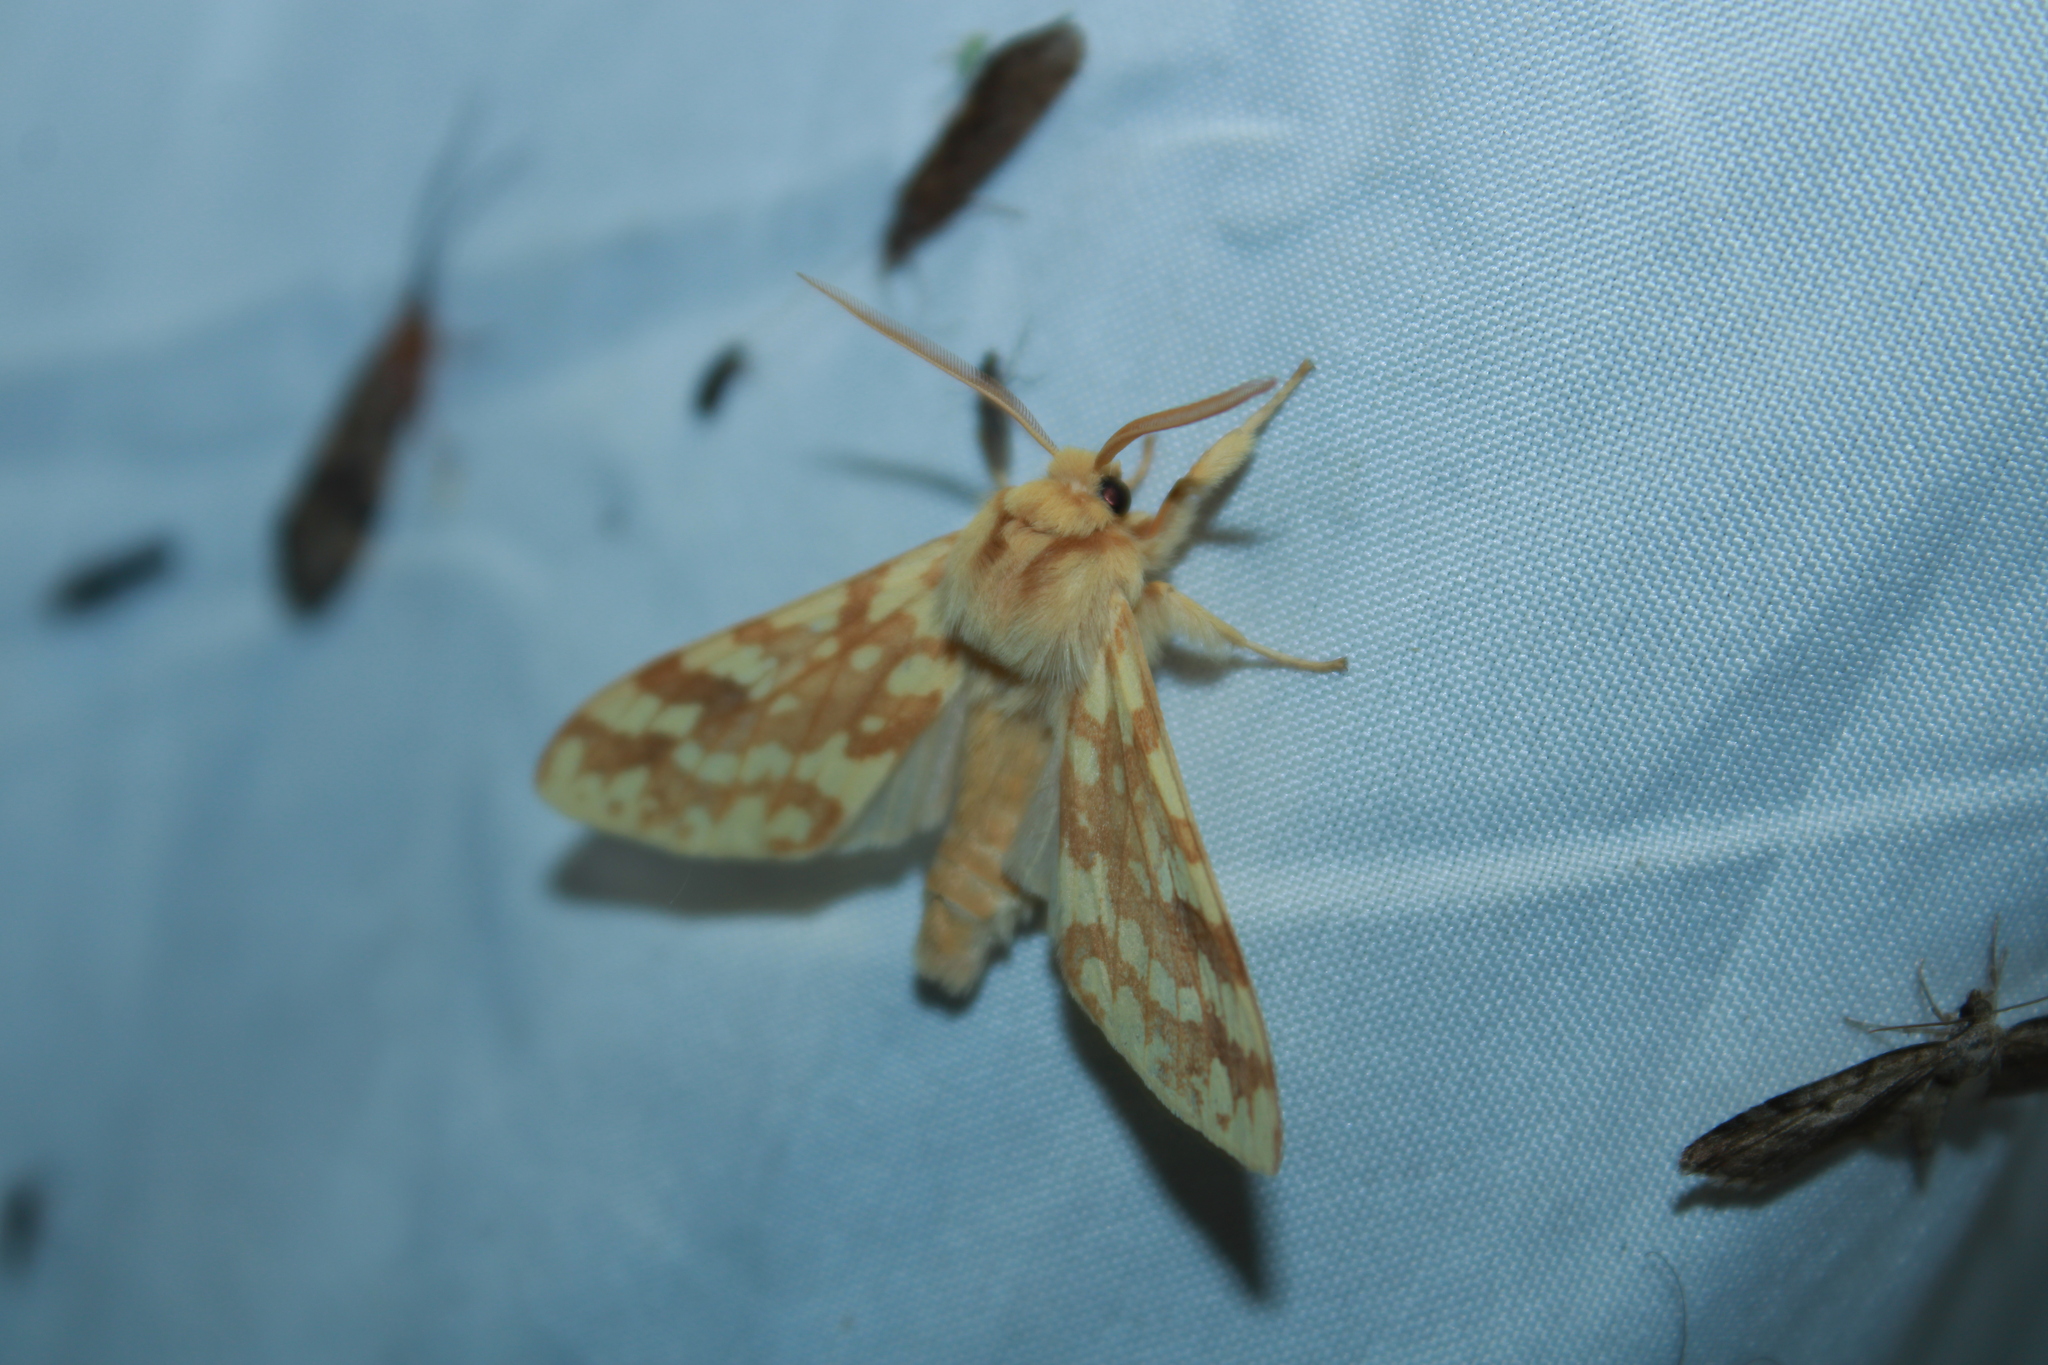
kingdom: Animalia
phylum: Arthropoda
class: Insecta
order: Lepidoptera
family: Erebidae
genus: Lophocampa
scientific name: Lophocampa maculata
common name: Spotted tussock moth
